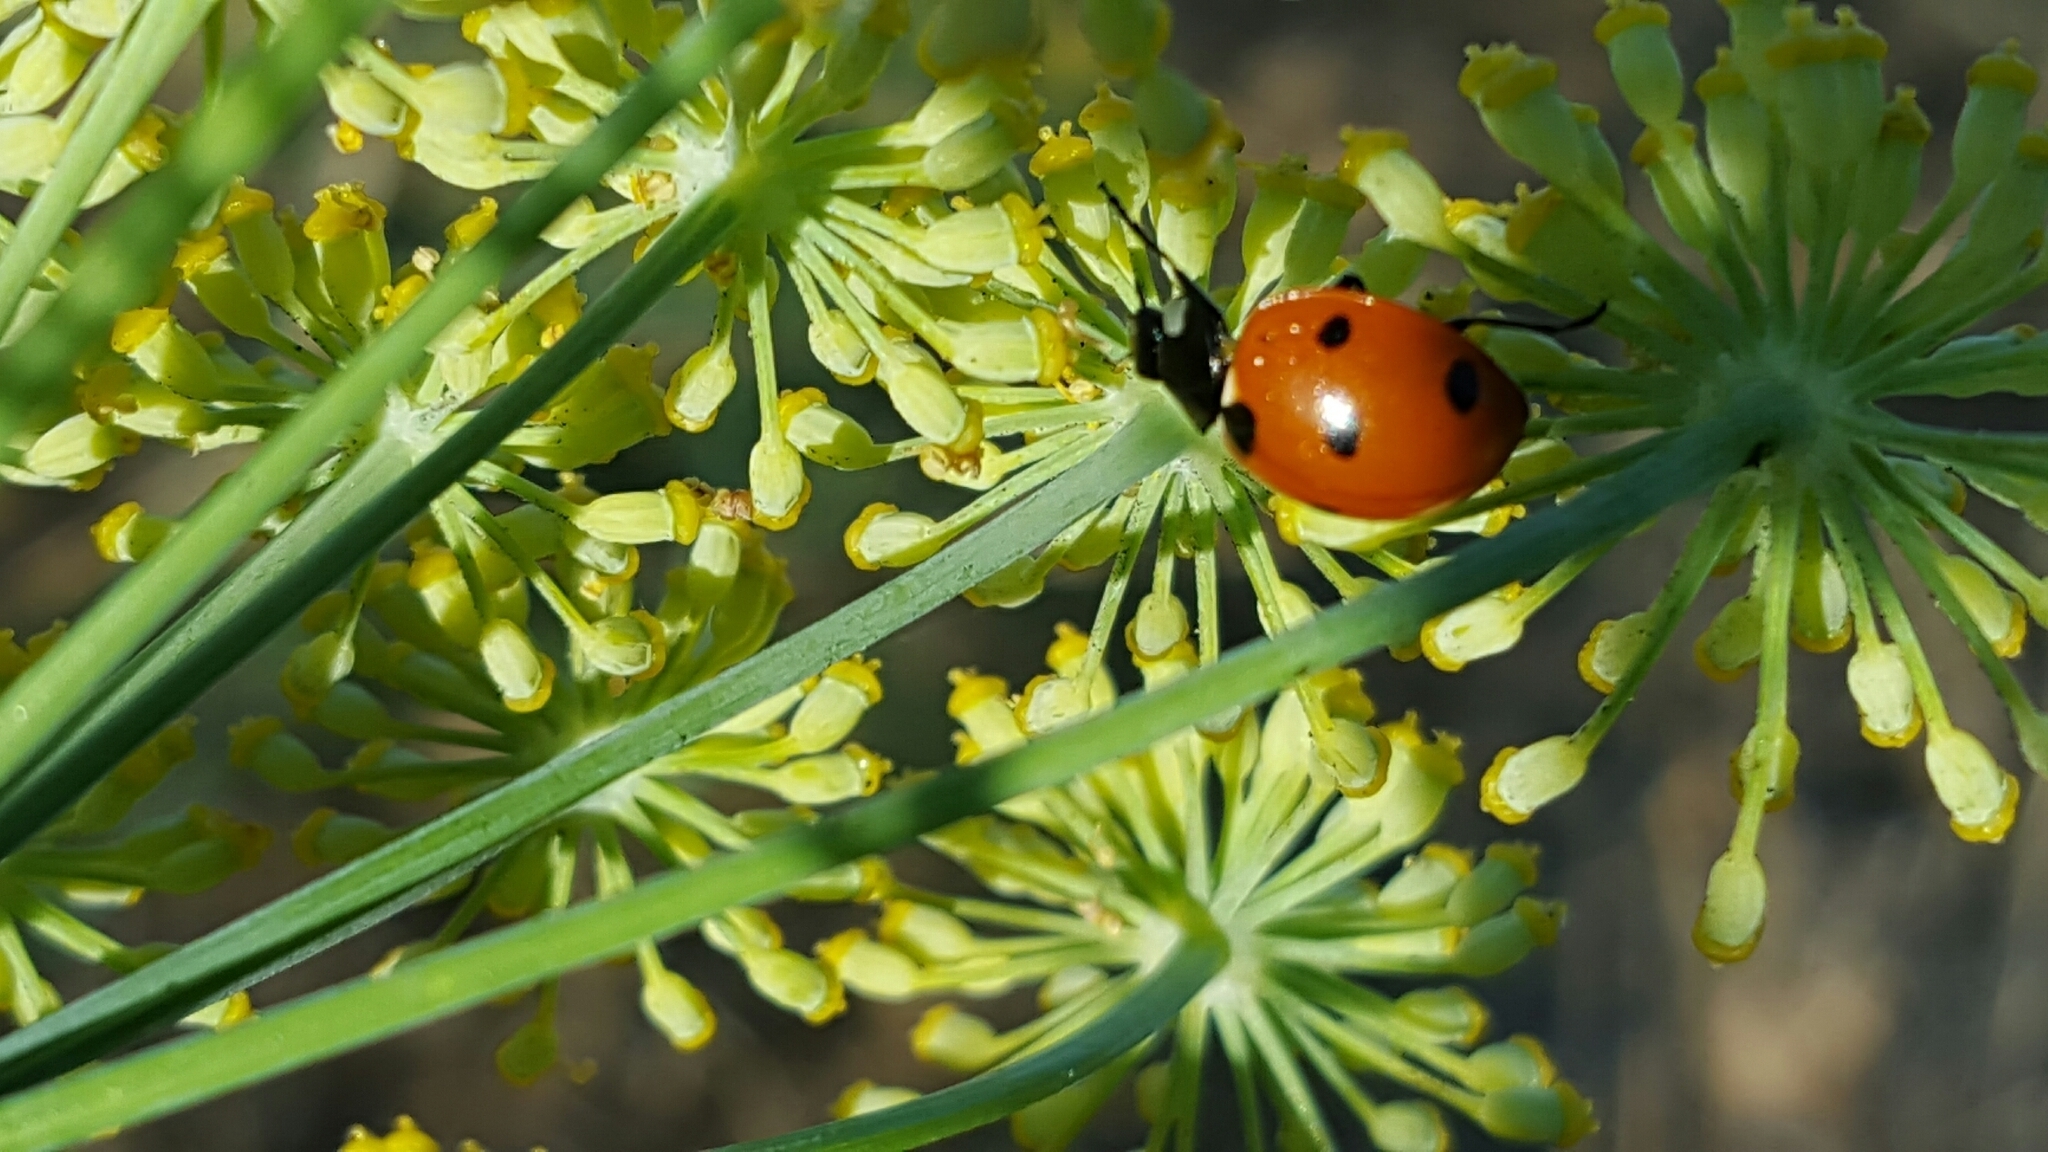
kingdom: Animalia
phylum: Arthropoda
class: Insecta
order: Coleoptera
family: Coccinellidae
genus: Coccinella
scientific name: Coccinella septempunctata
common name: Sevenspotted lady beetle
